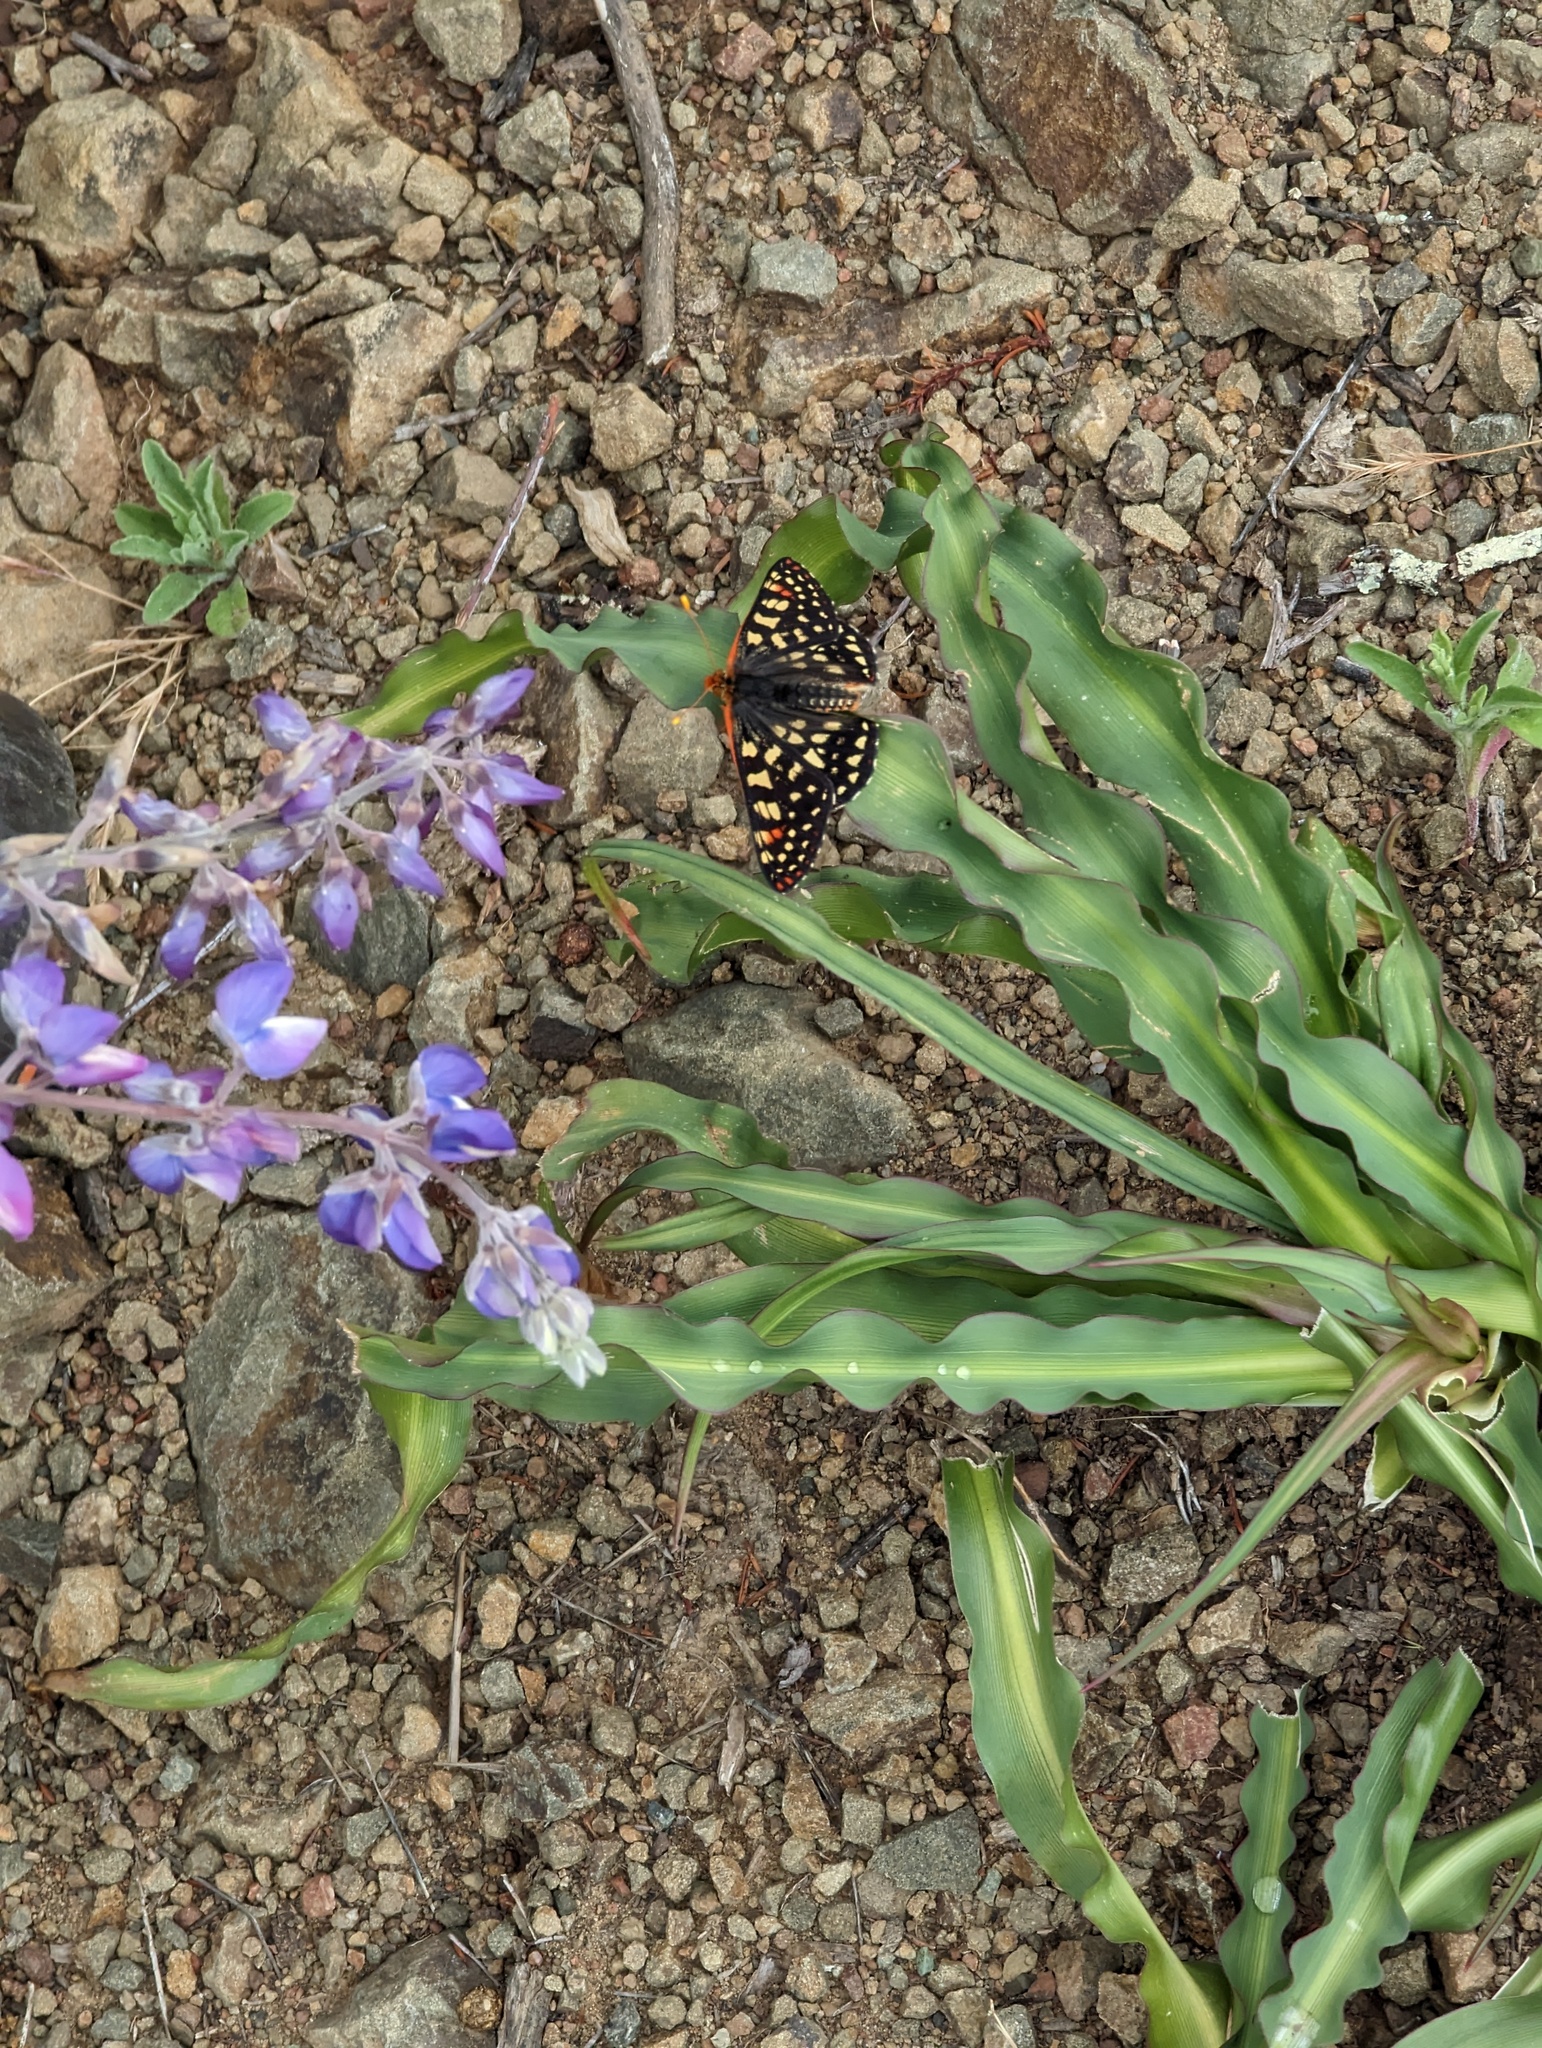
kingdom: Animalia
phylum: Arthropoda
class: Insecta
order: Lepidoptera
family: Nymphalidae
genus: Occidryas
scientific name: Occidryas chalcedona
